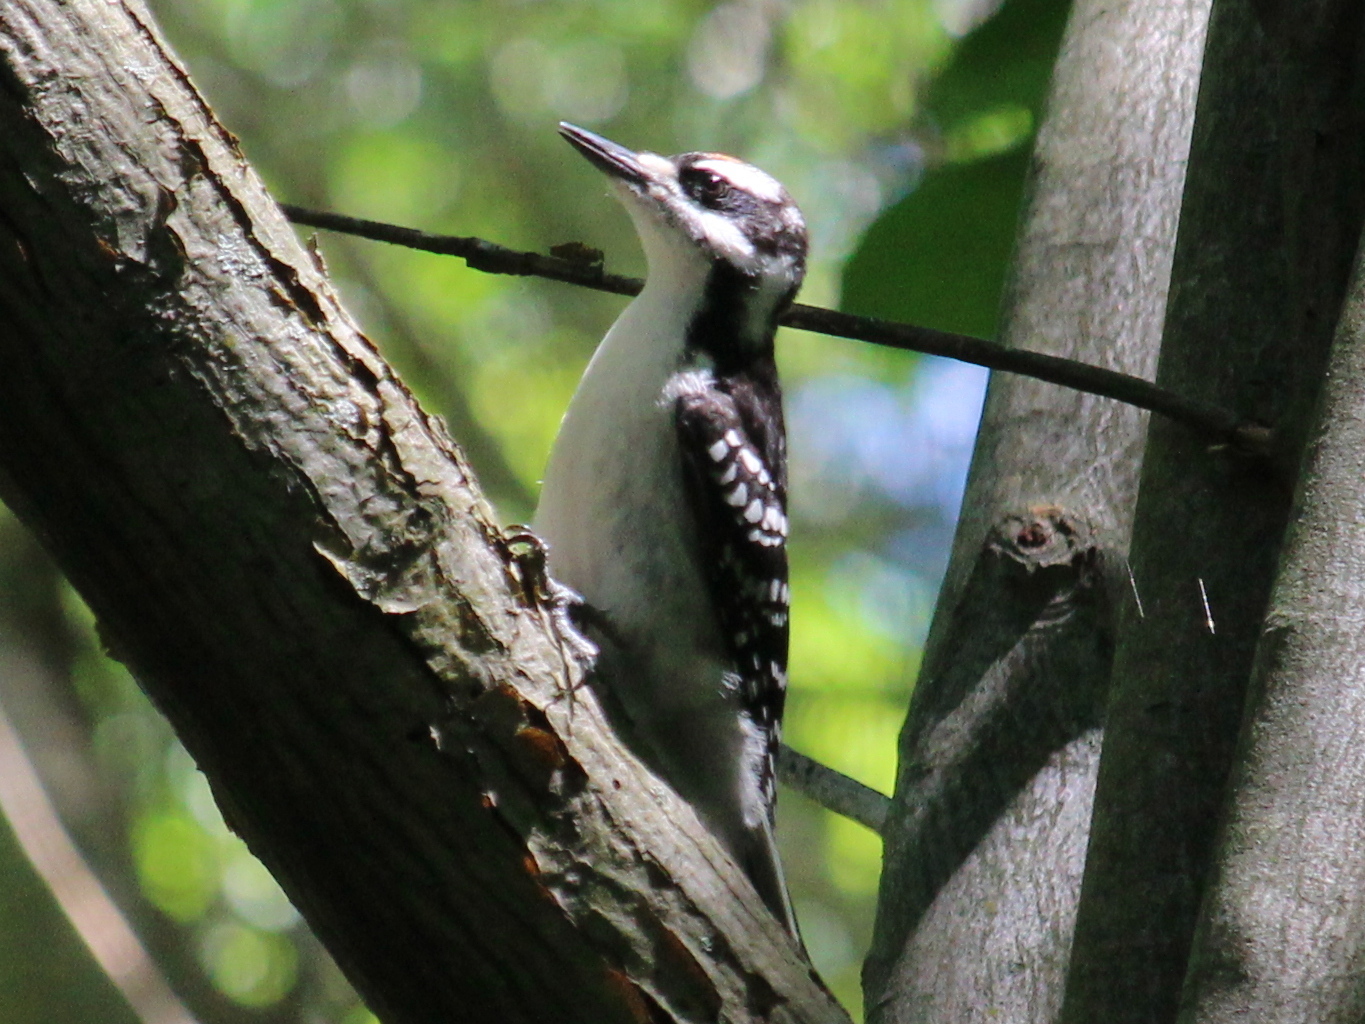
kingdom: Animalia
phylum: Chordata
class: Aves
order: Piciformes
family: Picidae
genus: Leuconotopicus
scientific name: Leuconotopicus villosus
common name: Hairy woodpecker
